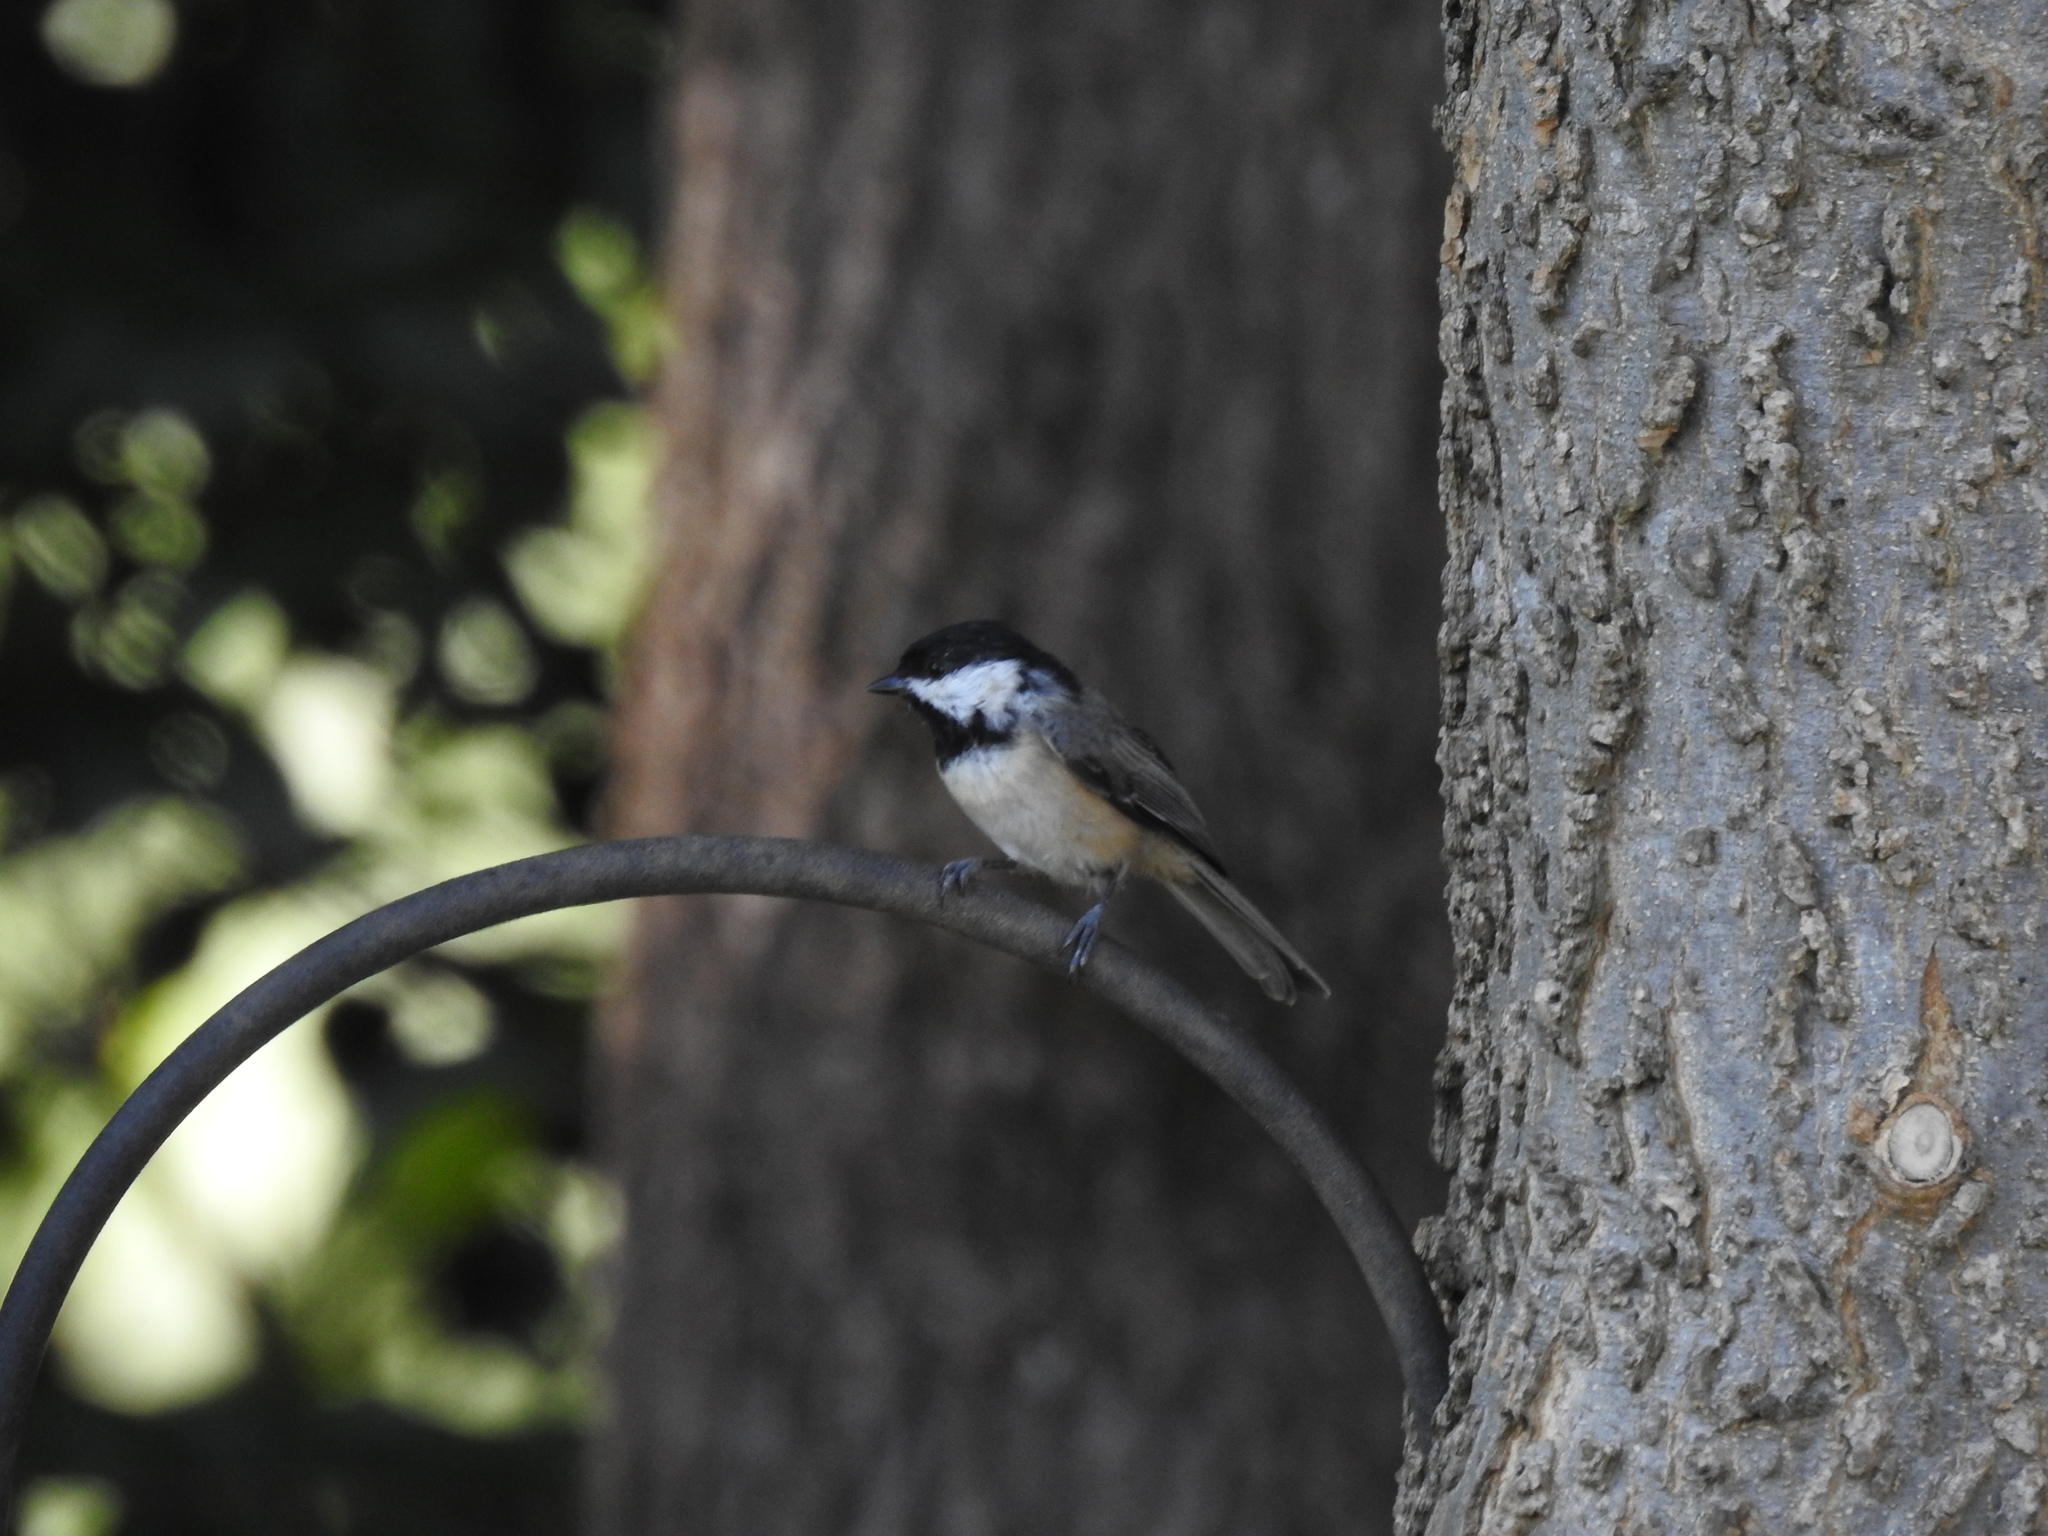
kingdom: Animalia
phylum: Chordata
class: Aves
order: Passeriformes
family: Paridae
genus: Poecile
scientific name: Poecile carolinensis
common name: Carolina chickadee
